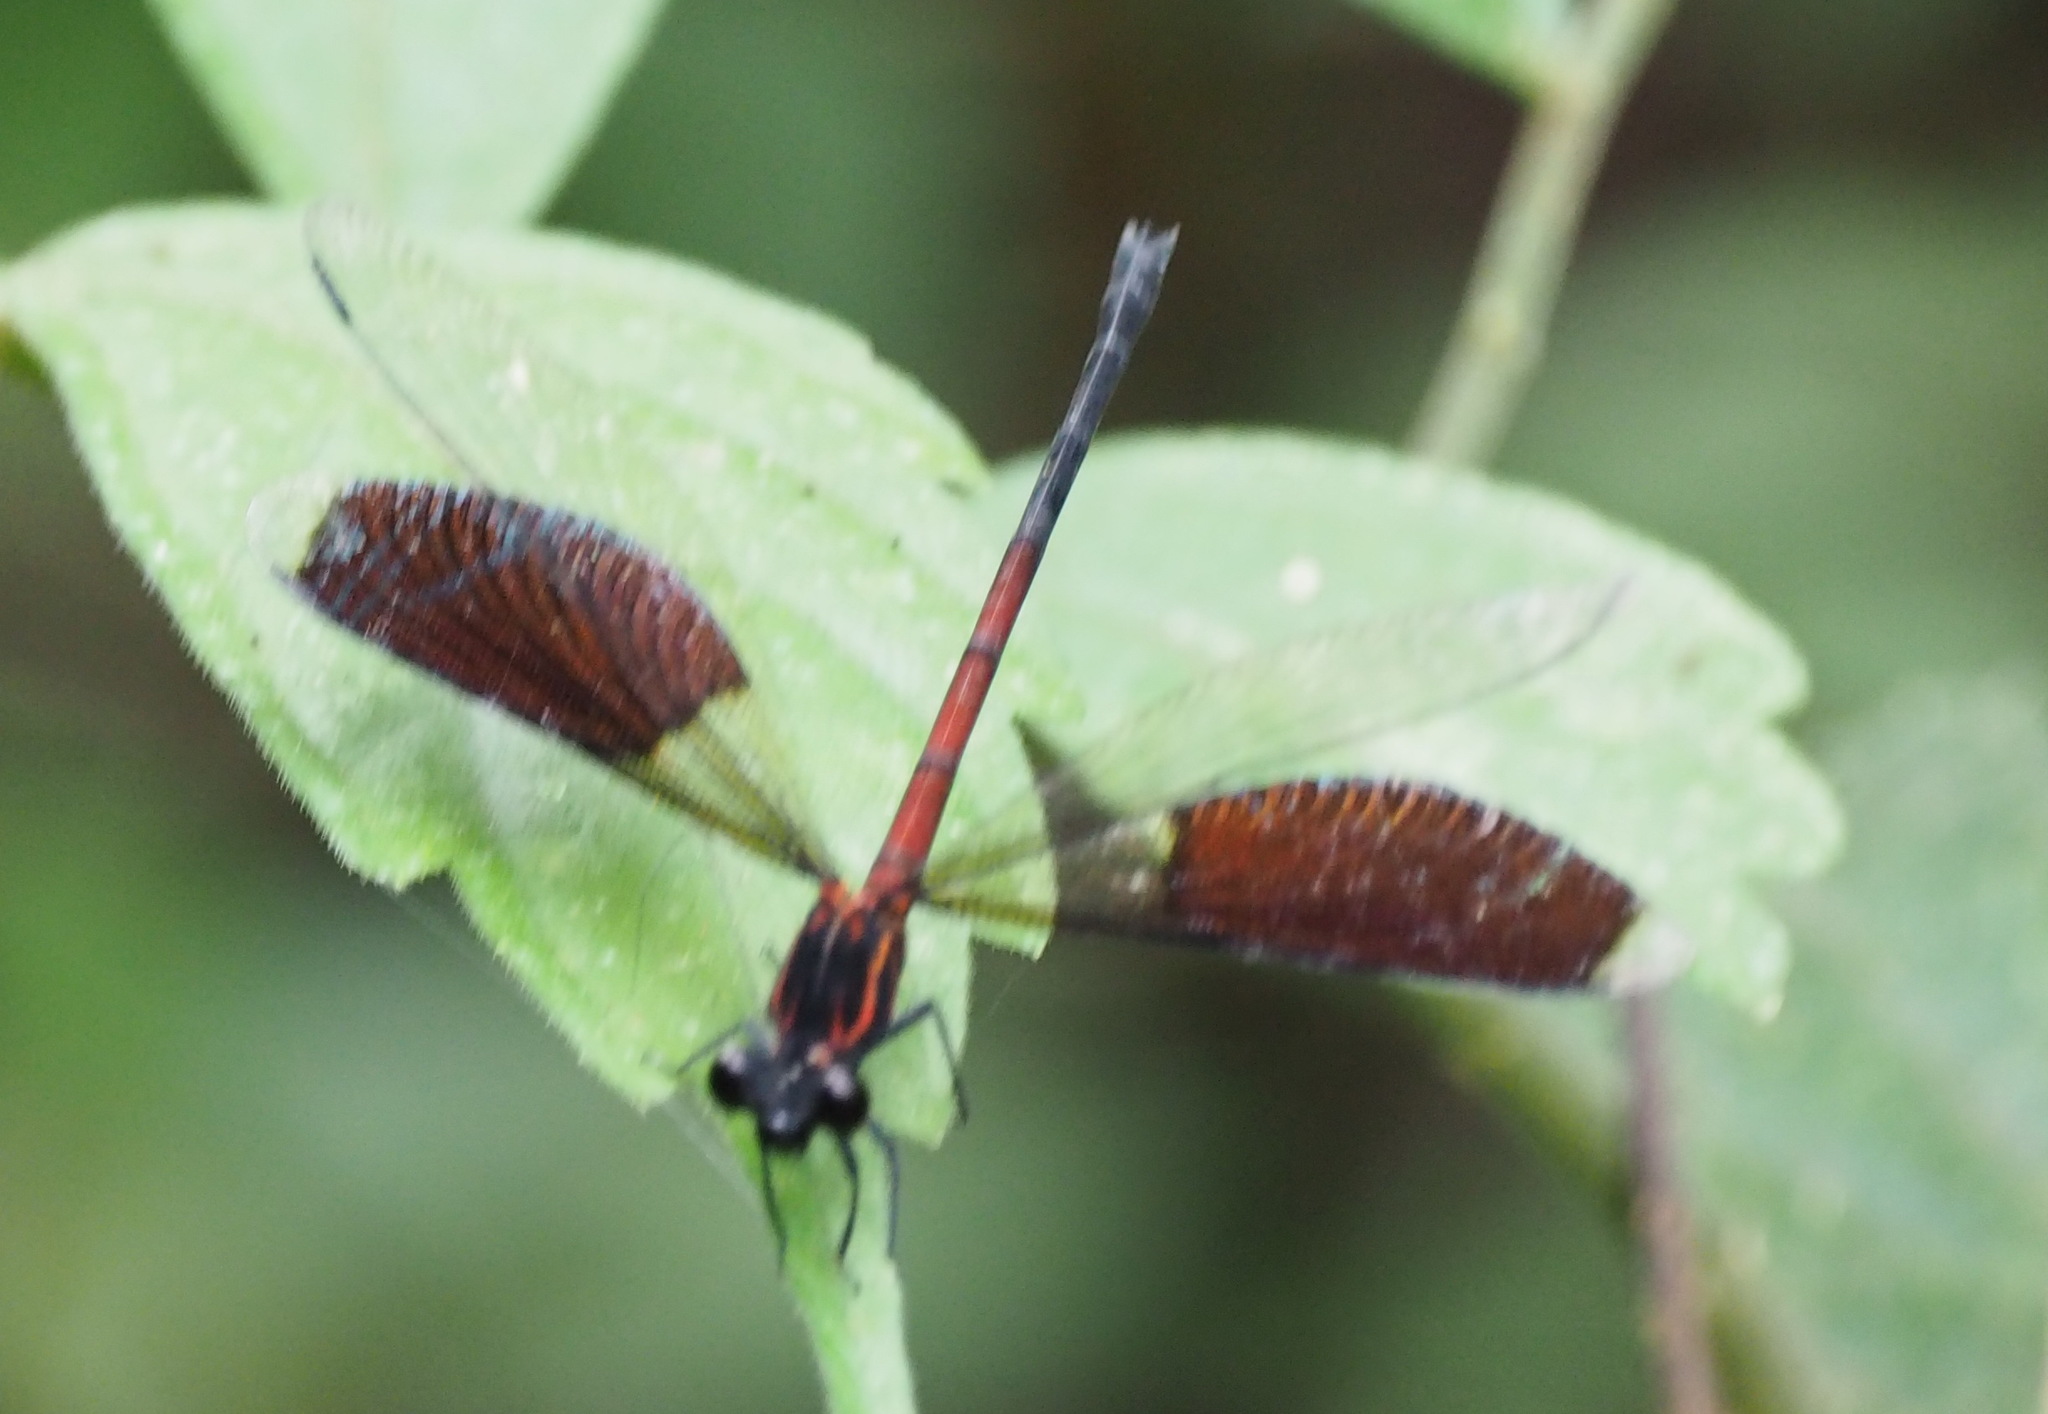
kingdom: Animalia
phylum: Arthropoda
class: Insecta
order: Odonata
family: Euphaeidae
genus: Euphaea
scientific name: Euphaea formosa
